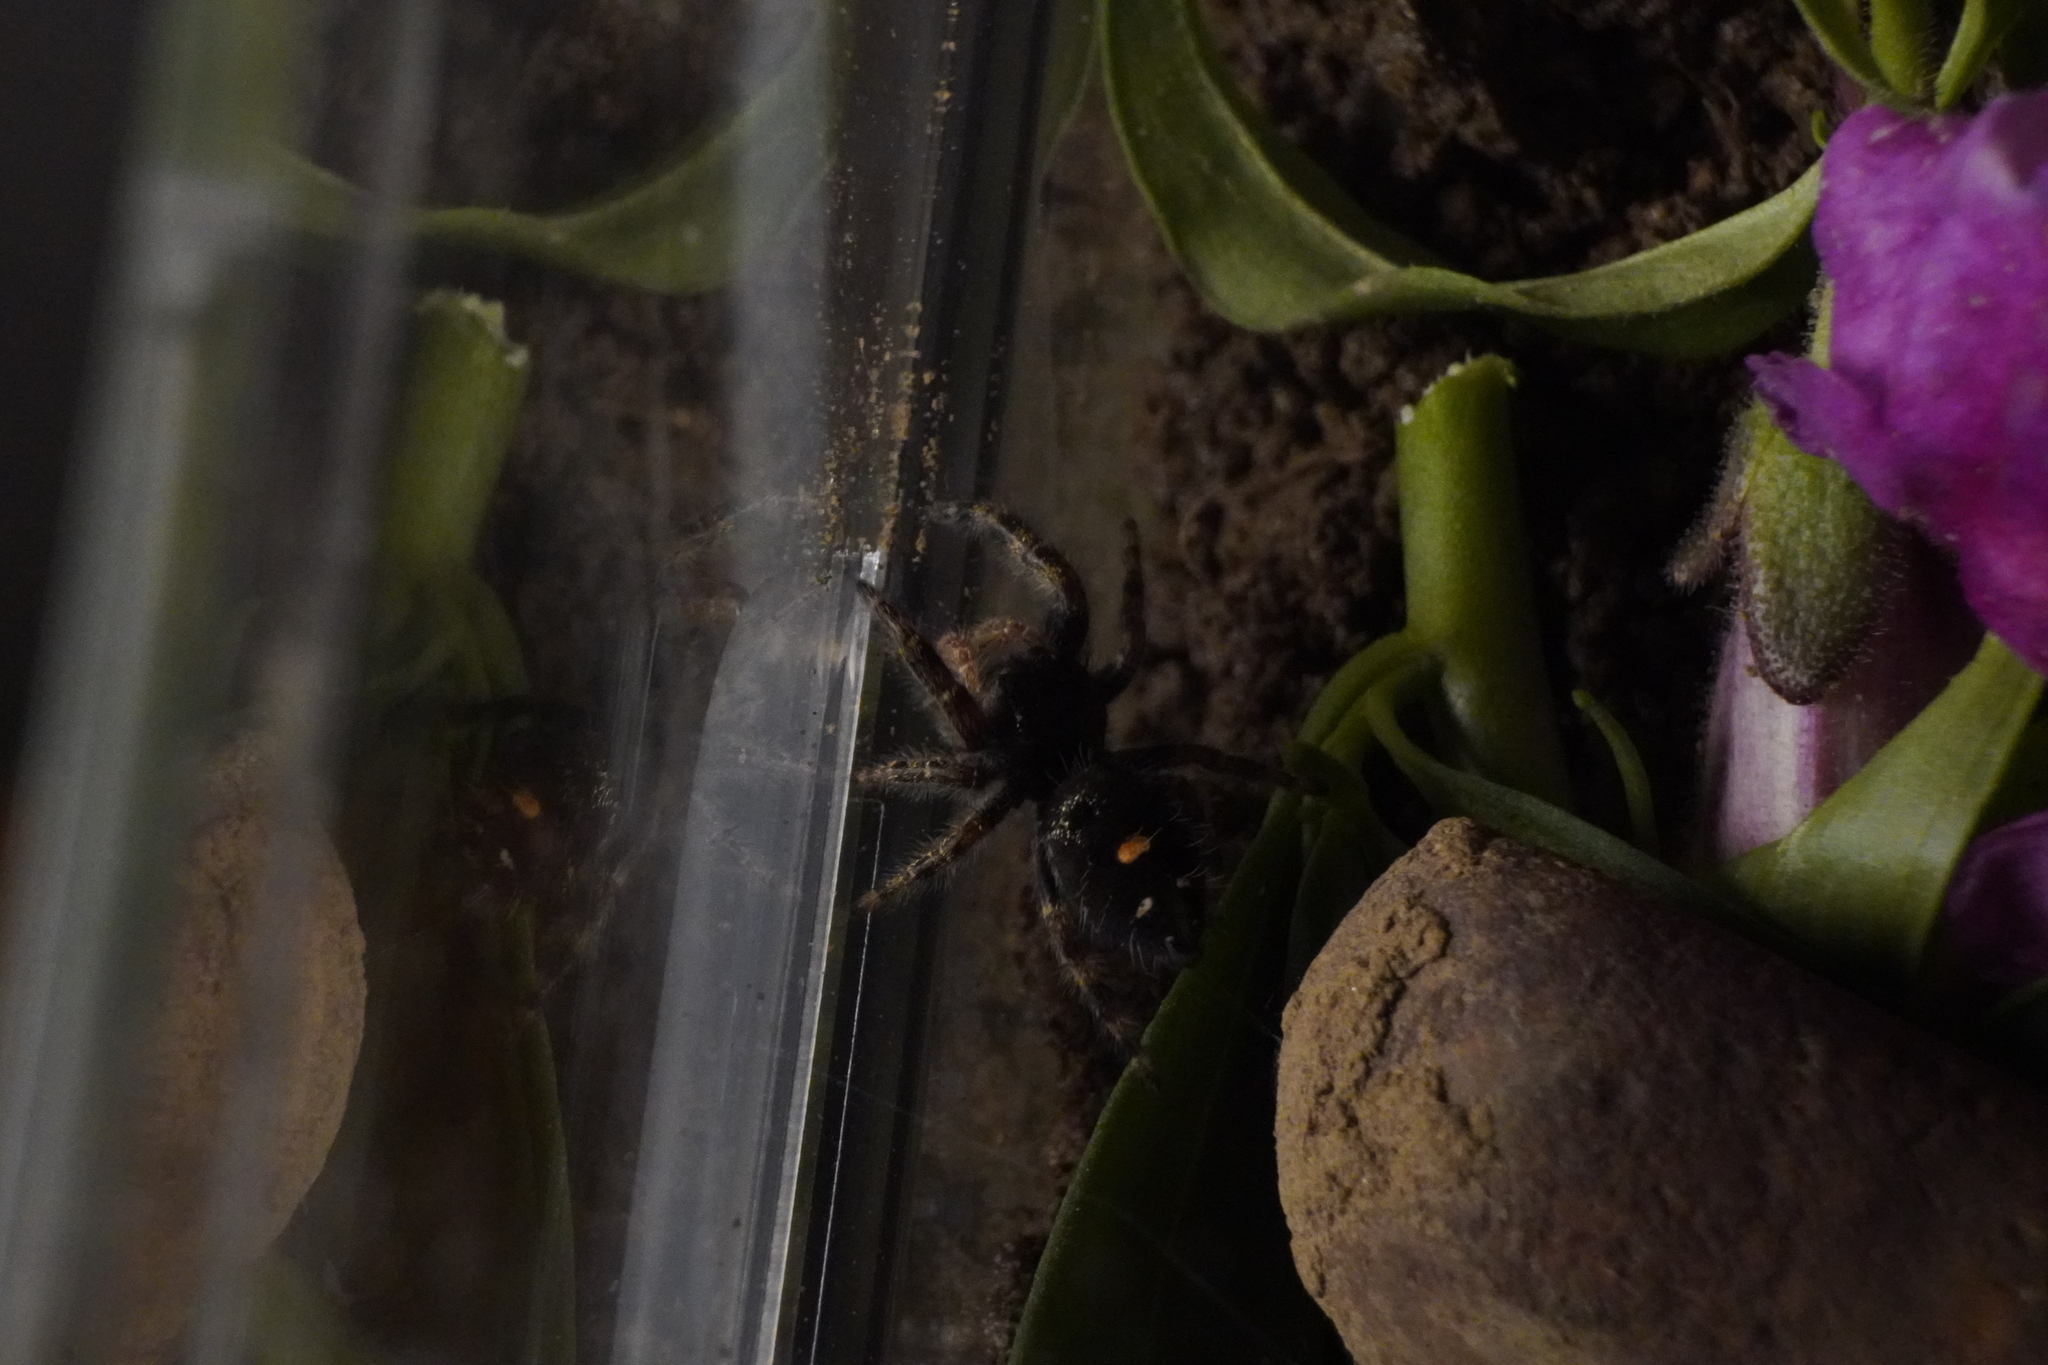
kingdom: Animalia
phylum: Arthropoda
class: Arachnida
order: Araneae
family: Salticidae
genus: Phidippus
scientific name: Phidippus audax
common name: Bold jumper
